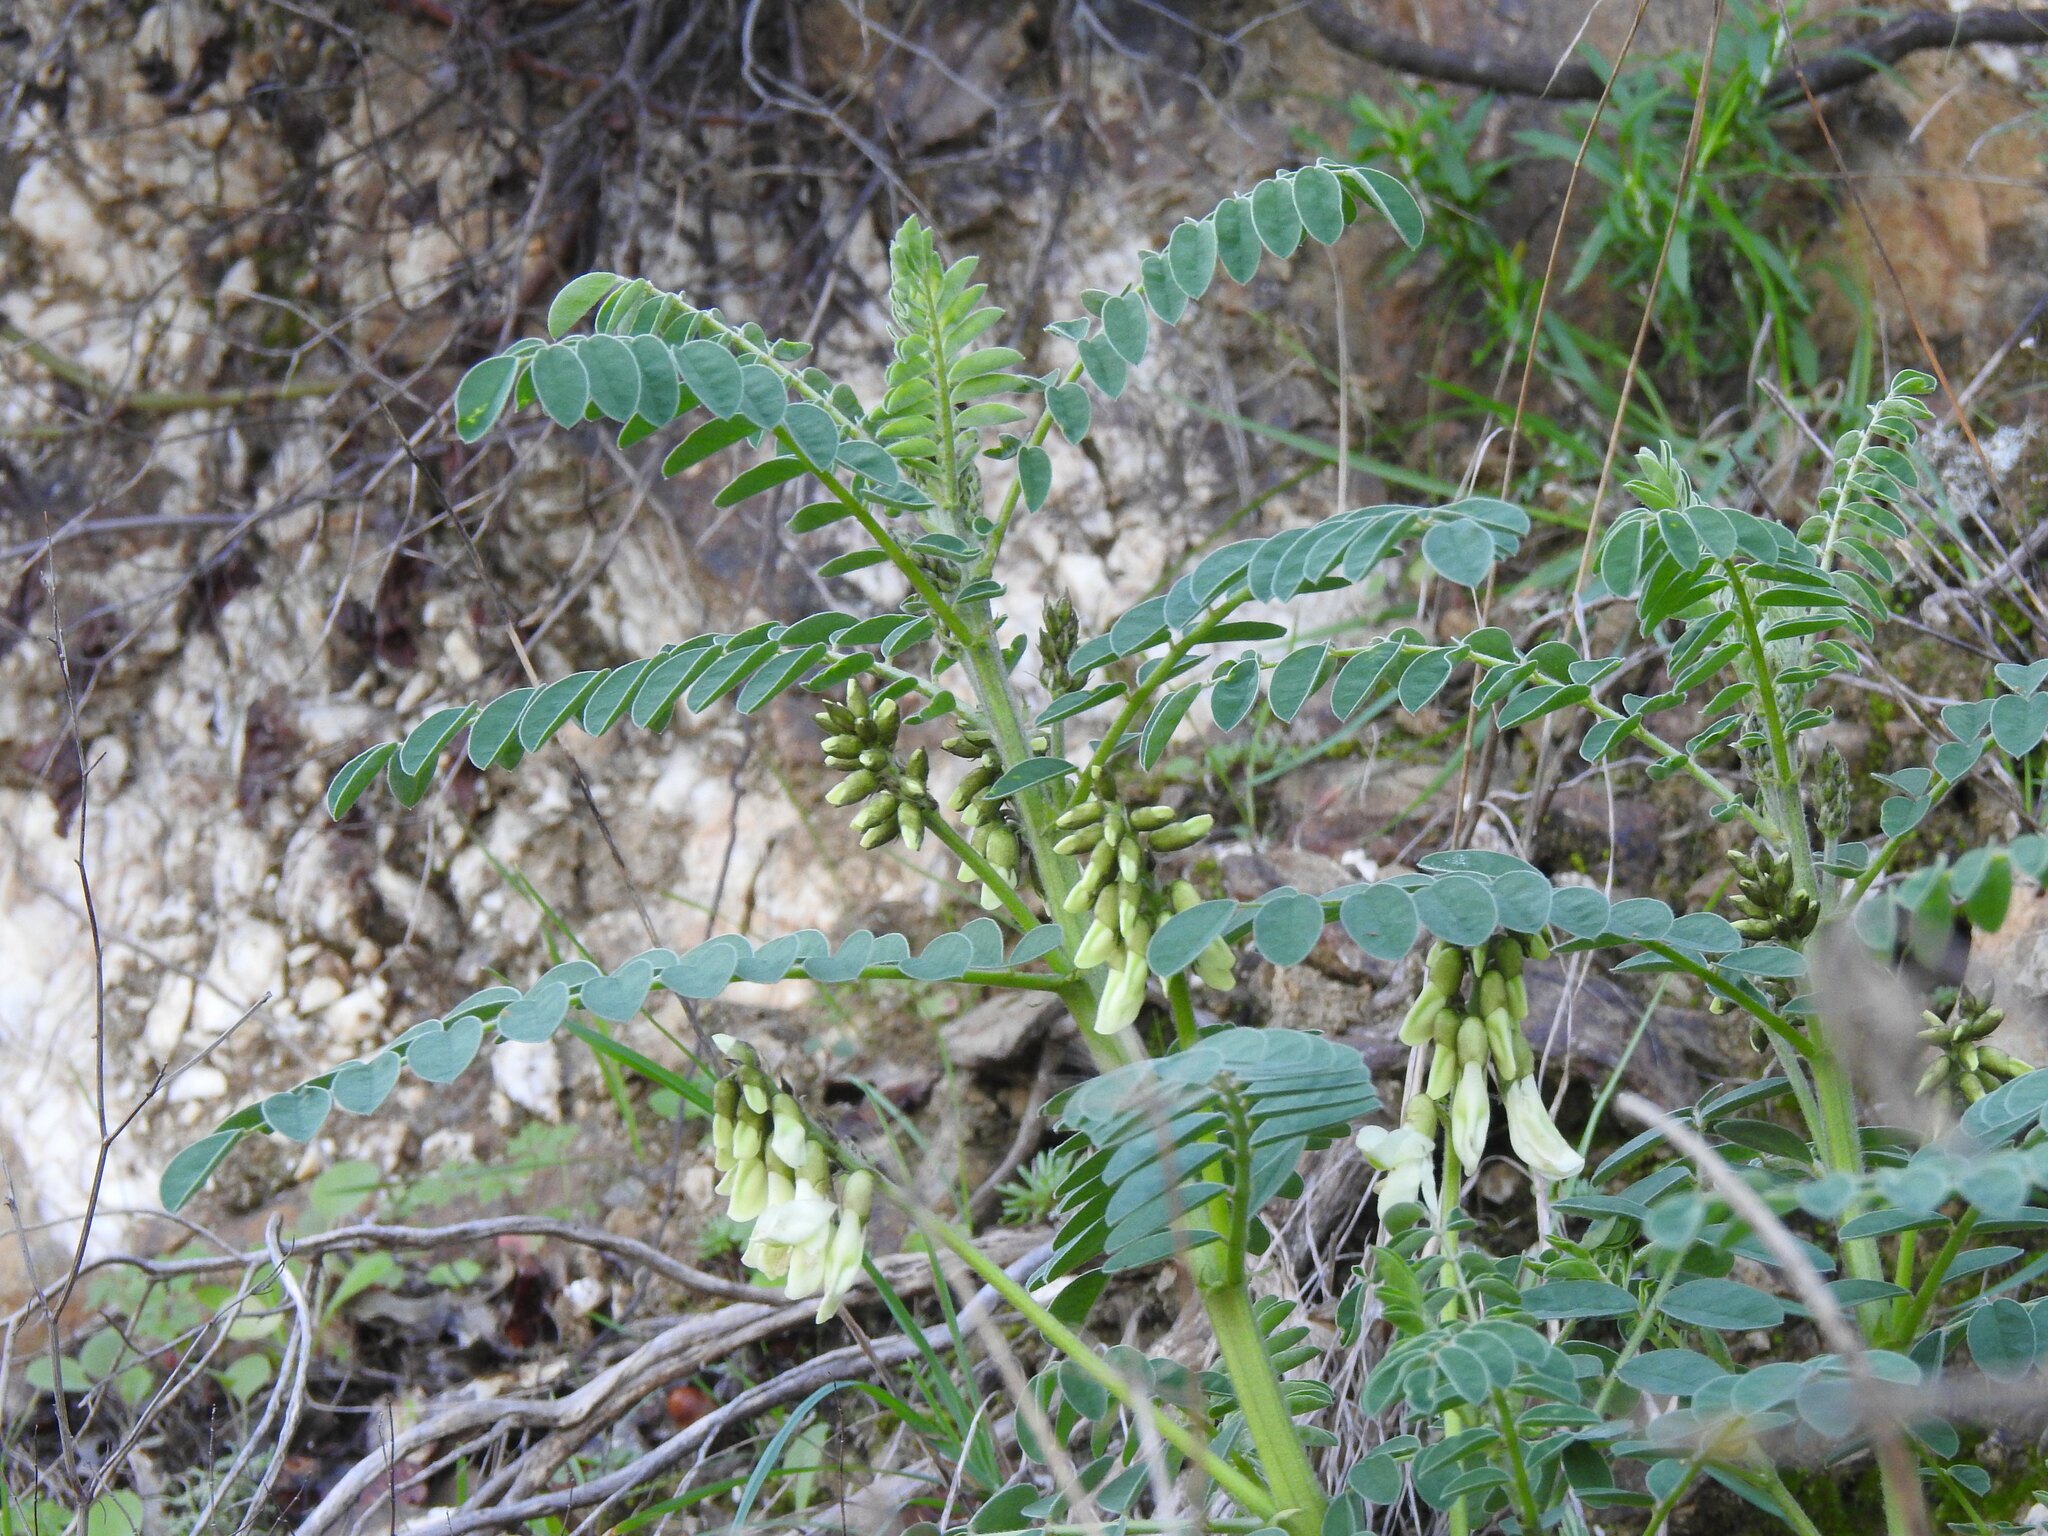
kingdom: Plantae
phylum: Tracheophyta
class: Magnoliopsida
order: Fabales
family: Fabaceae
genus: Erophaca
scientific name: Erophaca baetica
